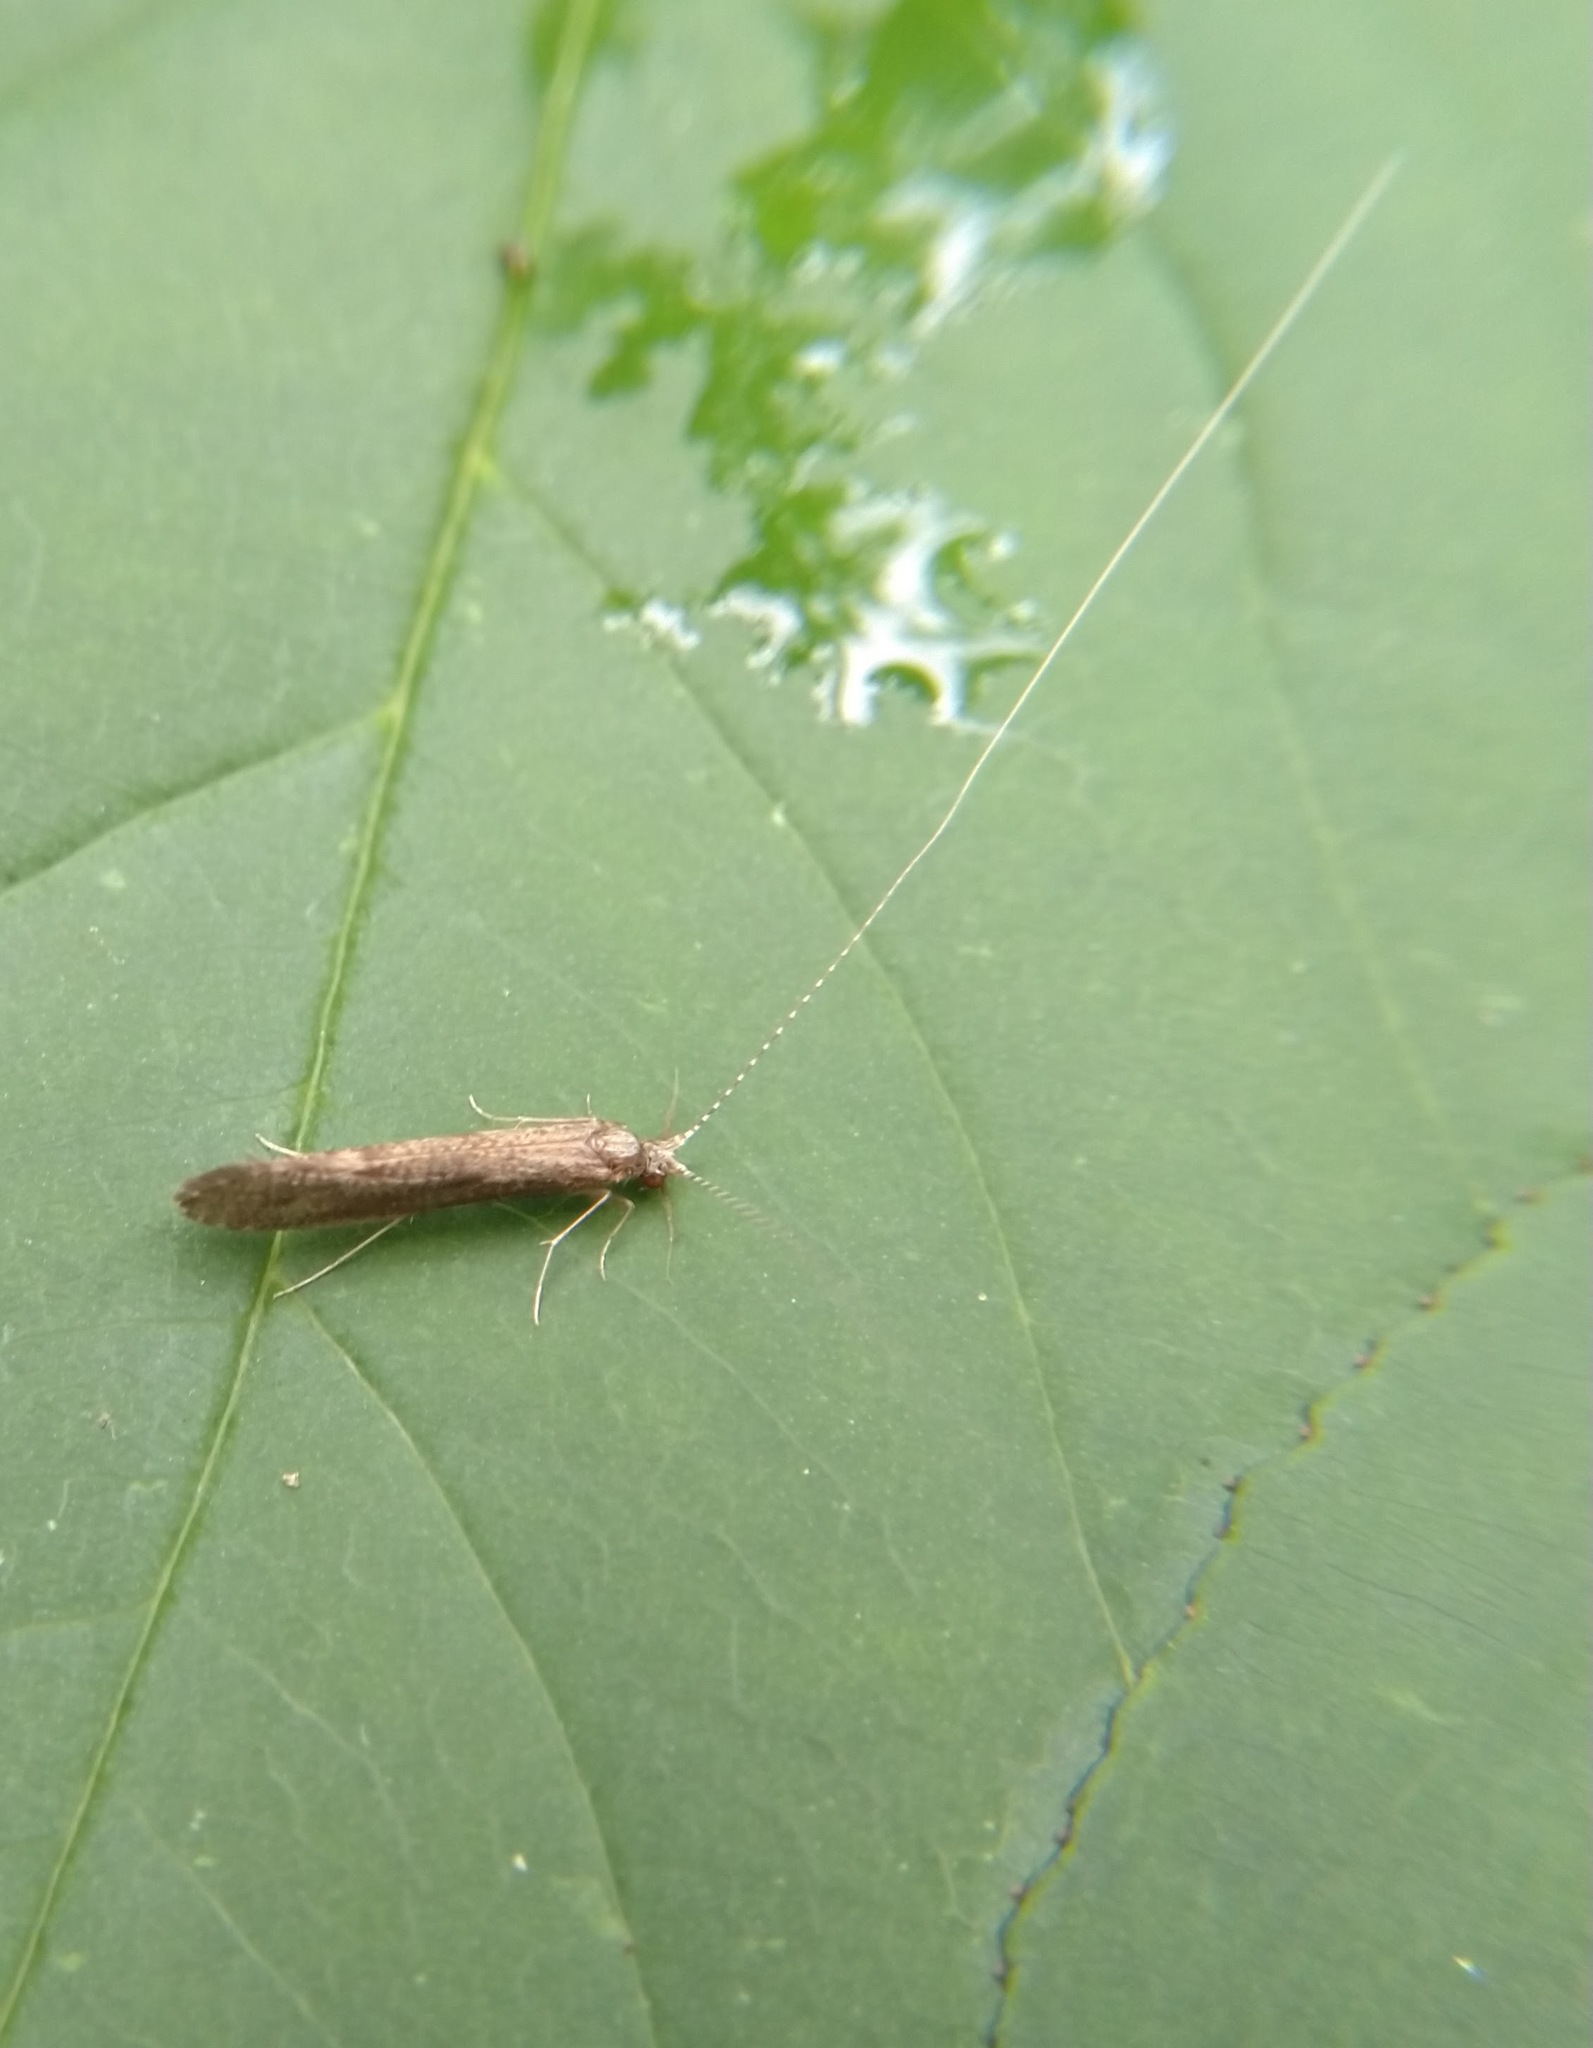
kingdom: Animalia
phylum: Arthropoda
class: Insecta
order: Trichoptera
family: Leptoceridae
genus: Leptocerus
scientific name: Leptocerus americanus
